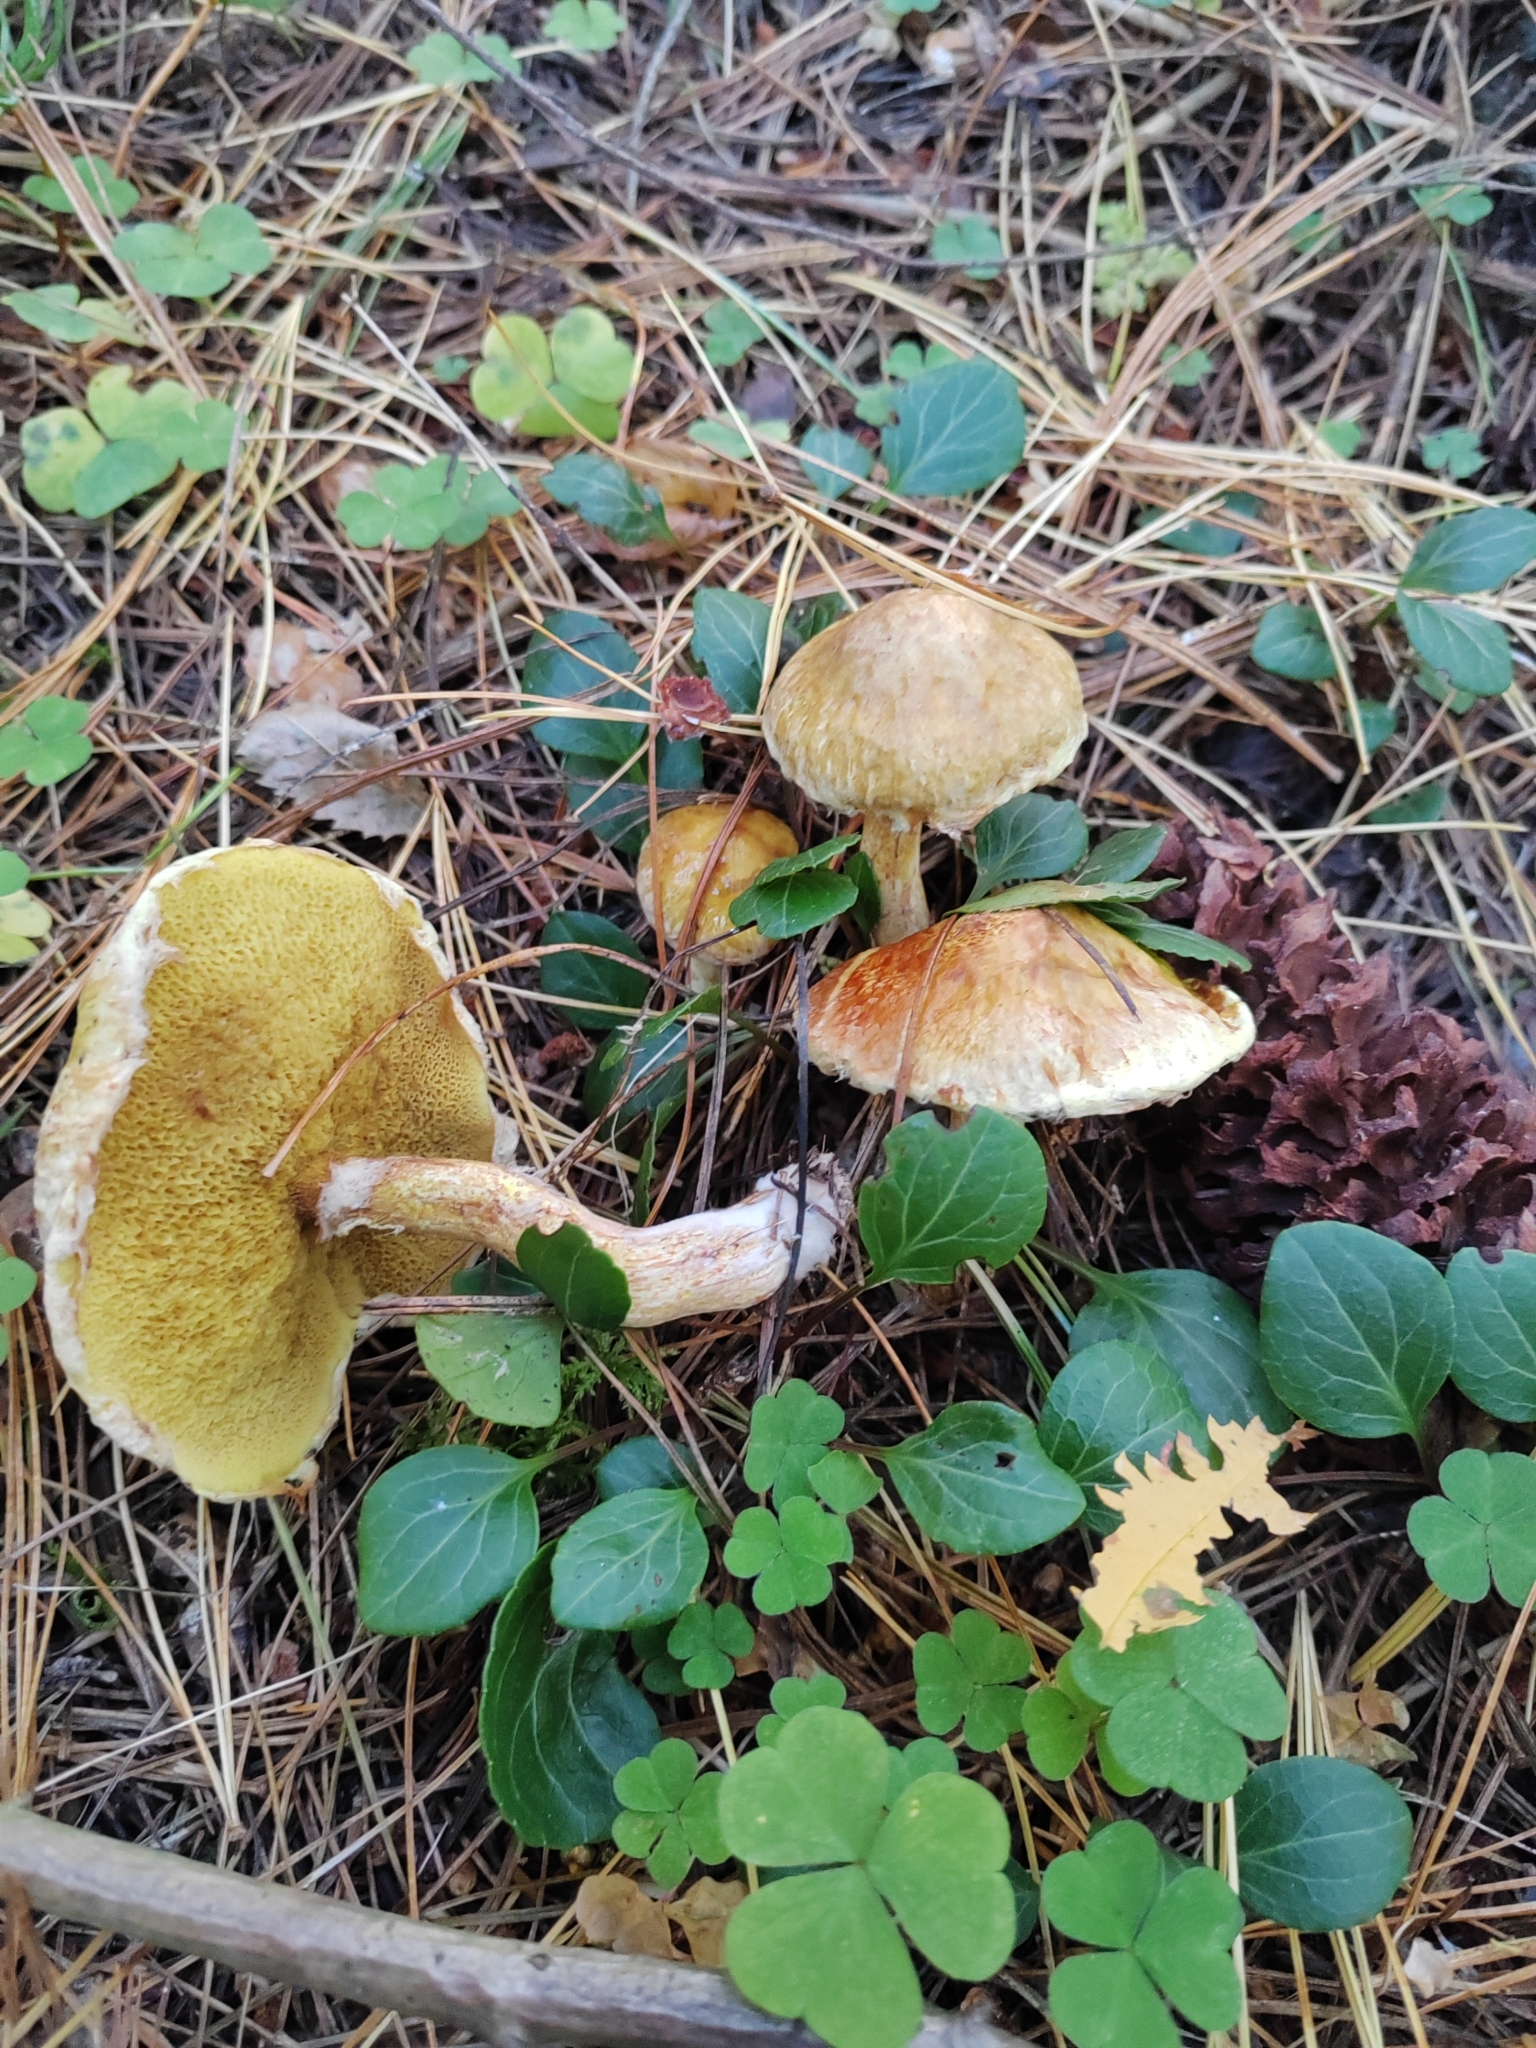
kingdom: Fungi
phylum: Basidiomycota
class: Agaricomycetes
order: Boletales
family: Suillaceae
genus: Suillus
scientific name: Suillus americanus
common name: Chicken fat mushroom
